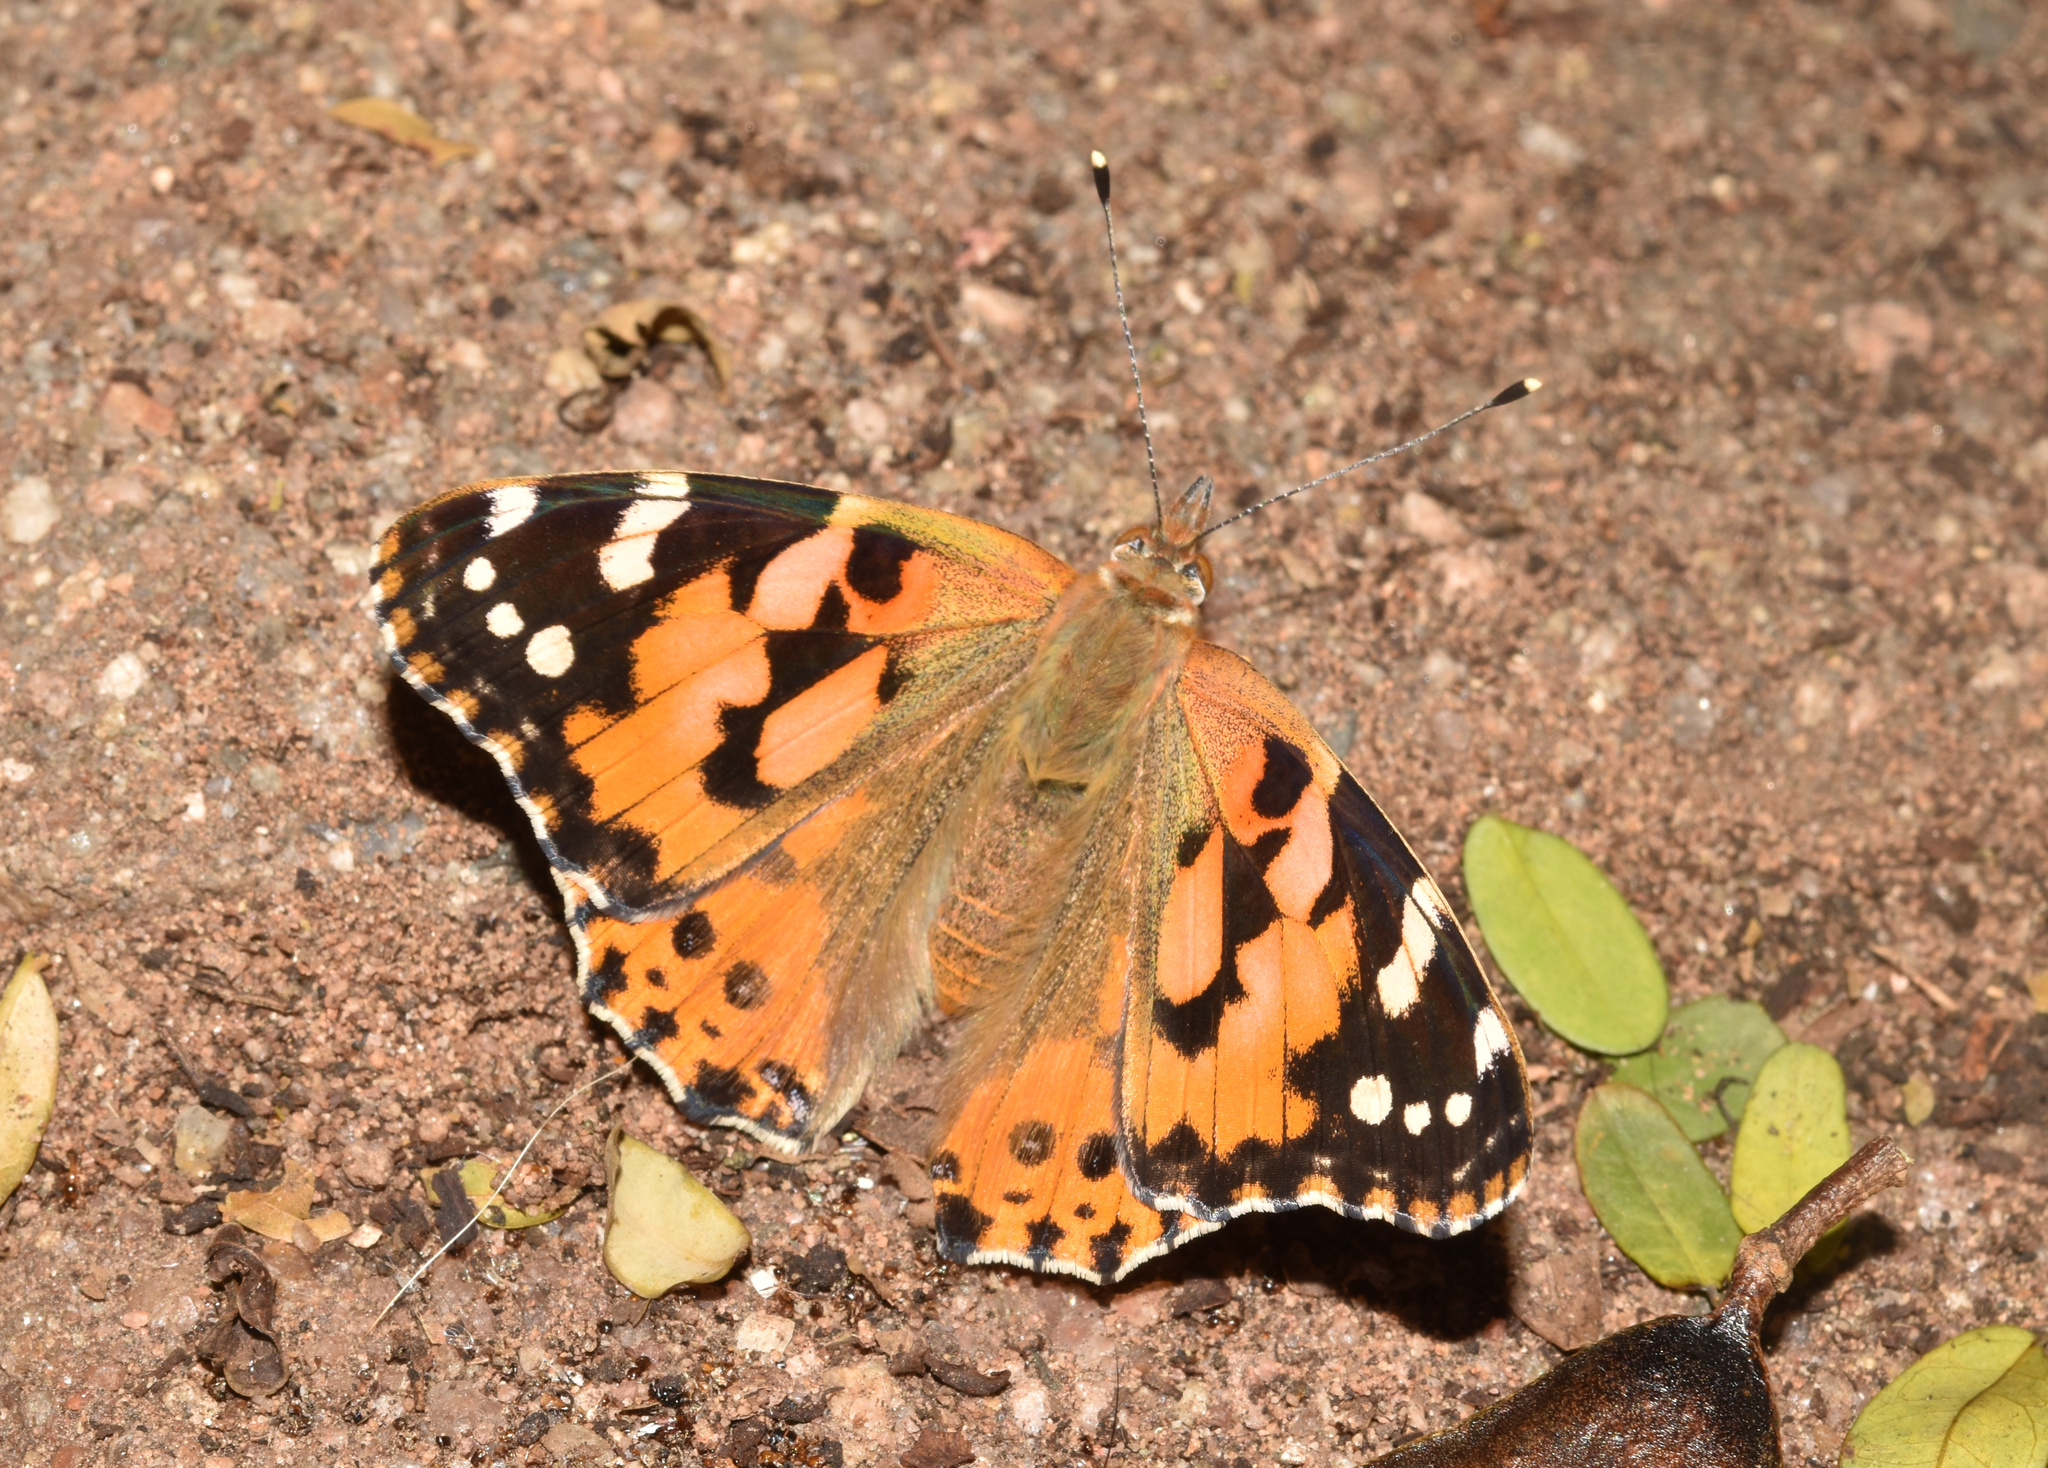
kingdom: Animalia
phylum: Arthropoda
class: Insecta
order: Lepidoptera
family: Nymphalidae
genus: Vanessa
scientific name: Vanessa cardui
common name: Painted lady
